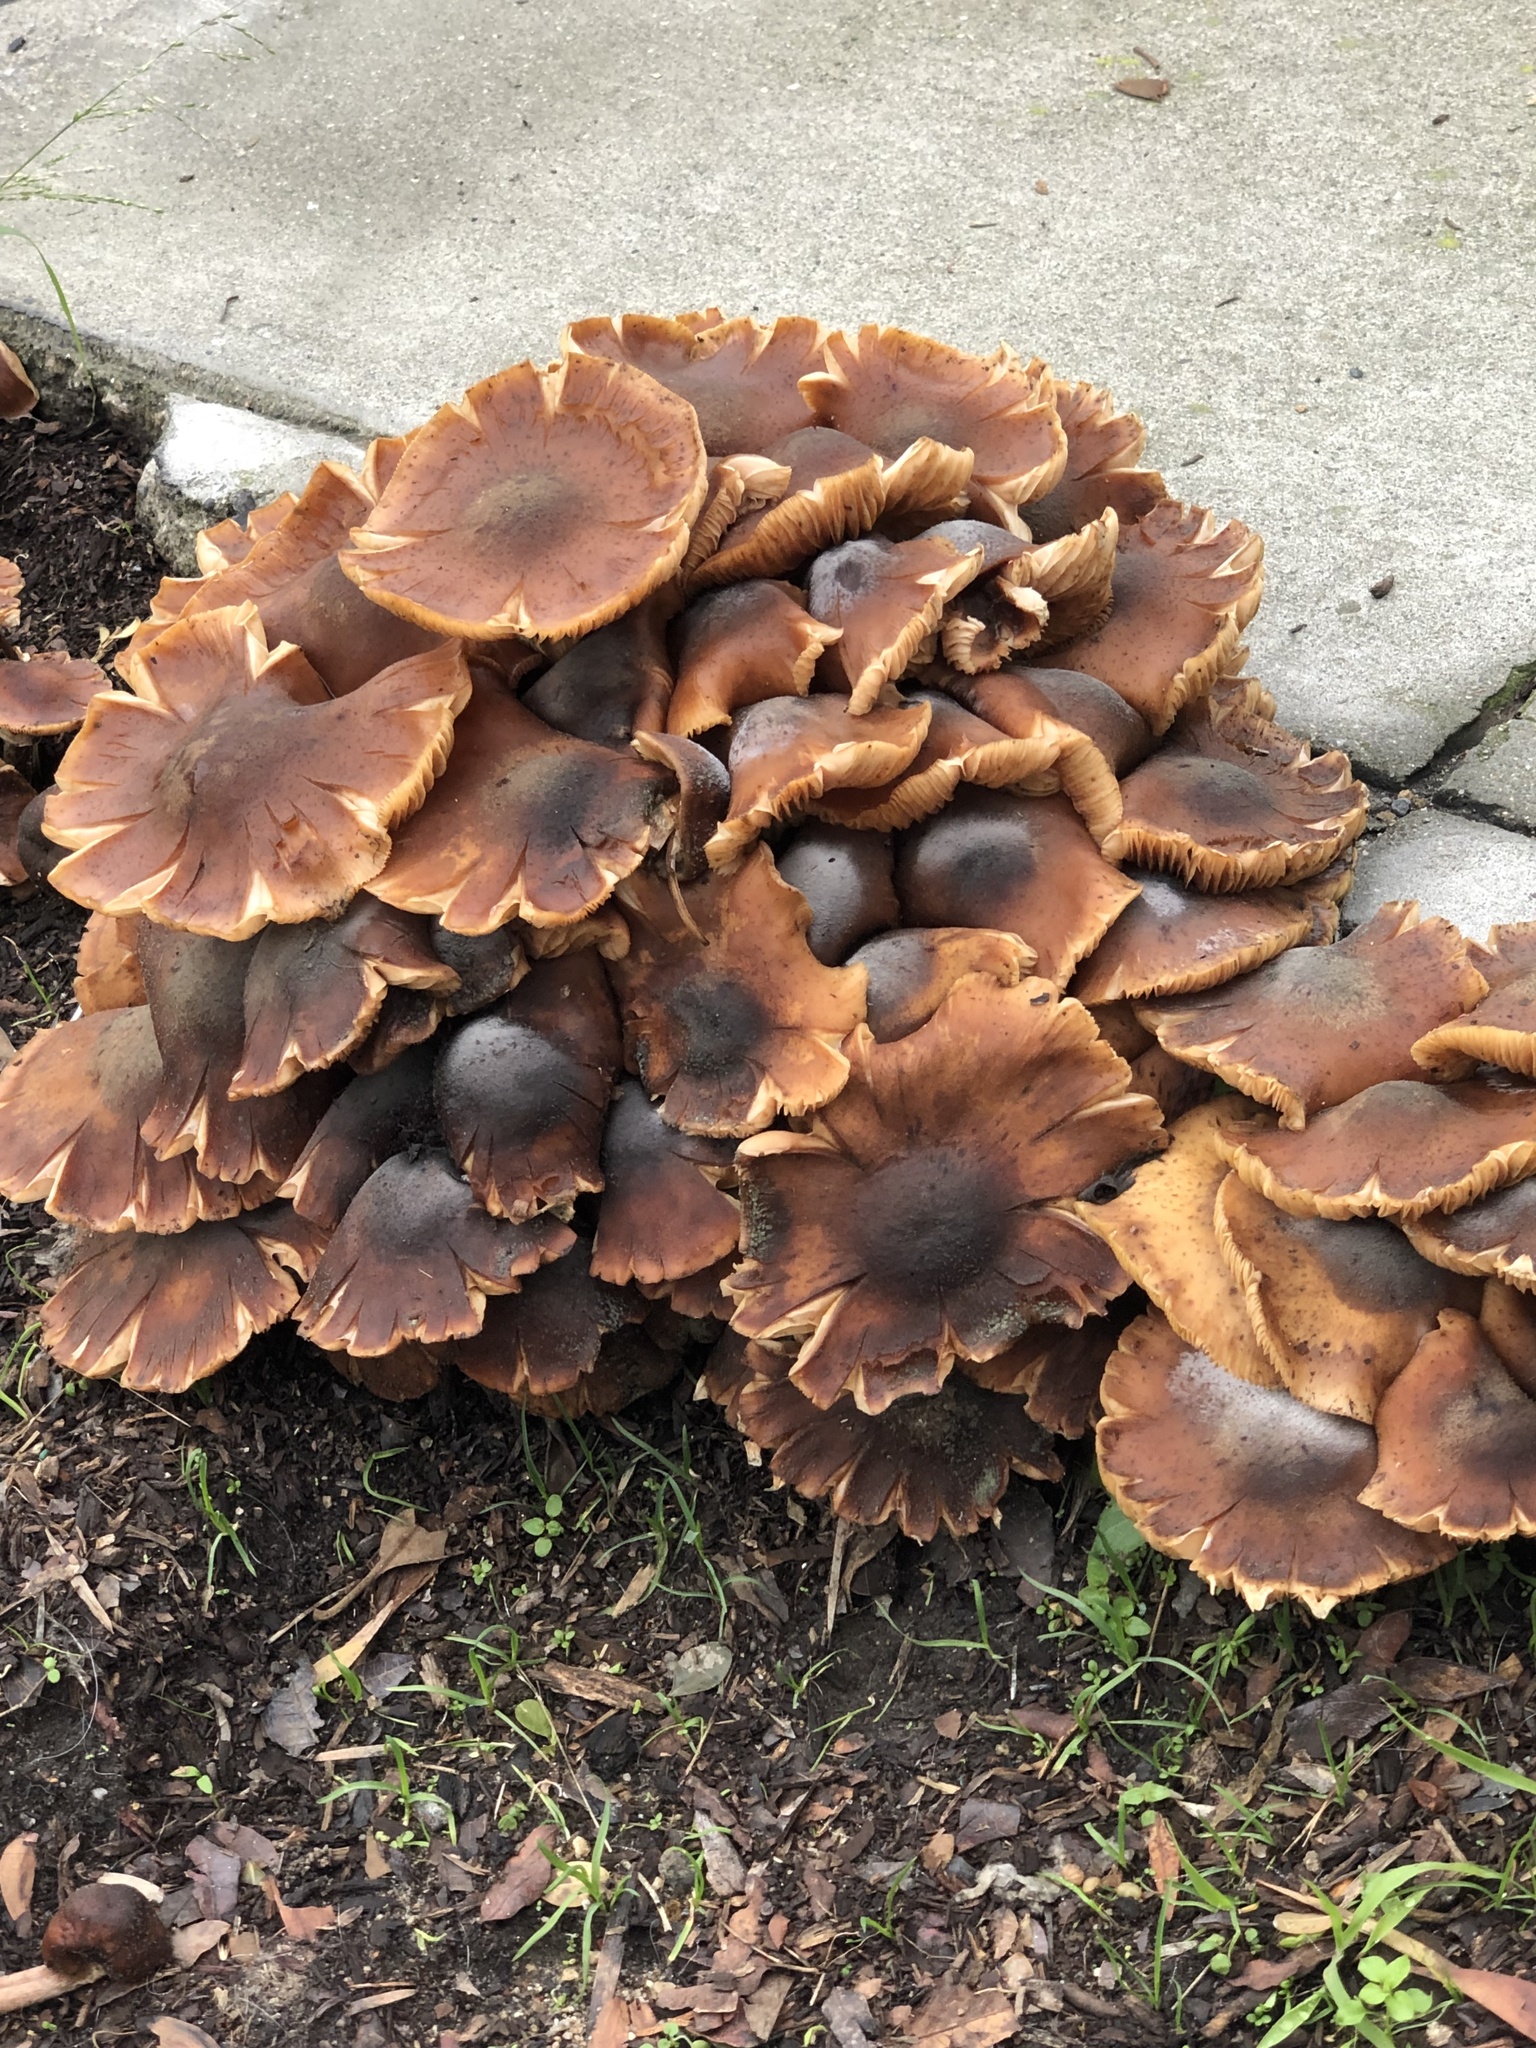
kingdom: Fungi
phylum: Basidiomycota
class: Agaricomycetes
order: Agaricales
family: Physalacriaceae
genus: Armillaria
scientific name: Armillaria mellea
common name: Honey fungus
